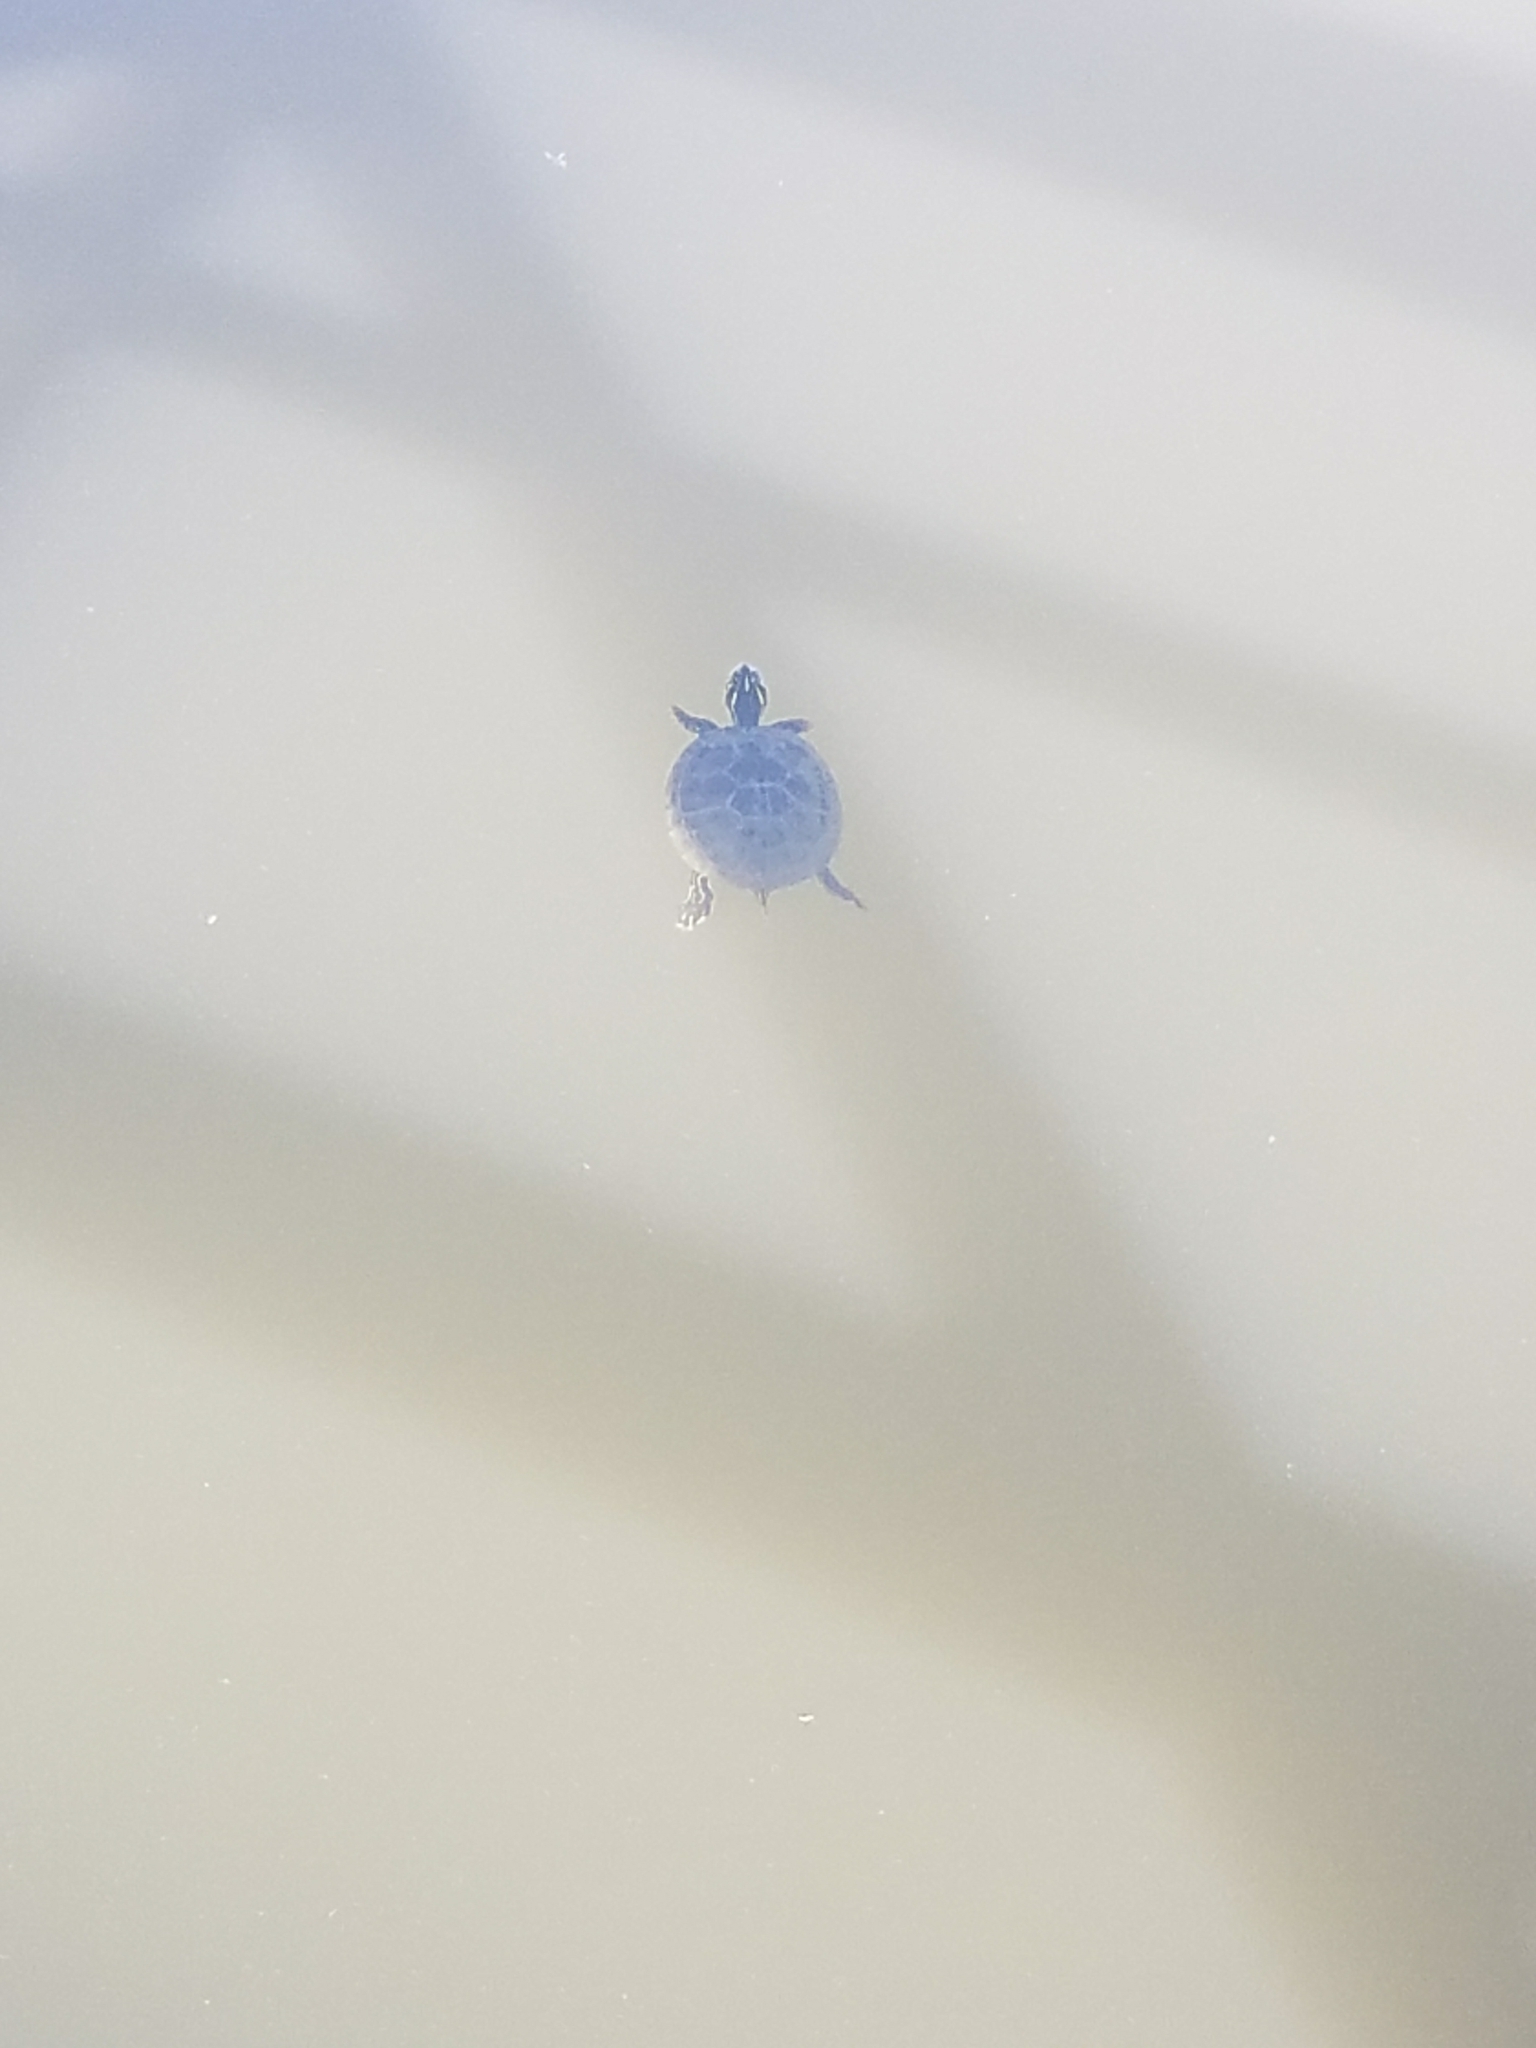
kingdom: Animalia
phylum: Chordata
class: Testudines
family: Emydidae
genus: Pseudemys
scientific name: Pseudemys rubriventris
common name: American red-bellied turtle
